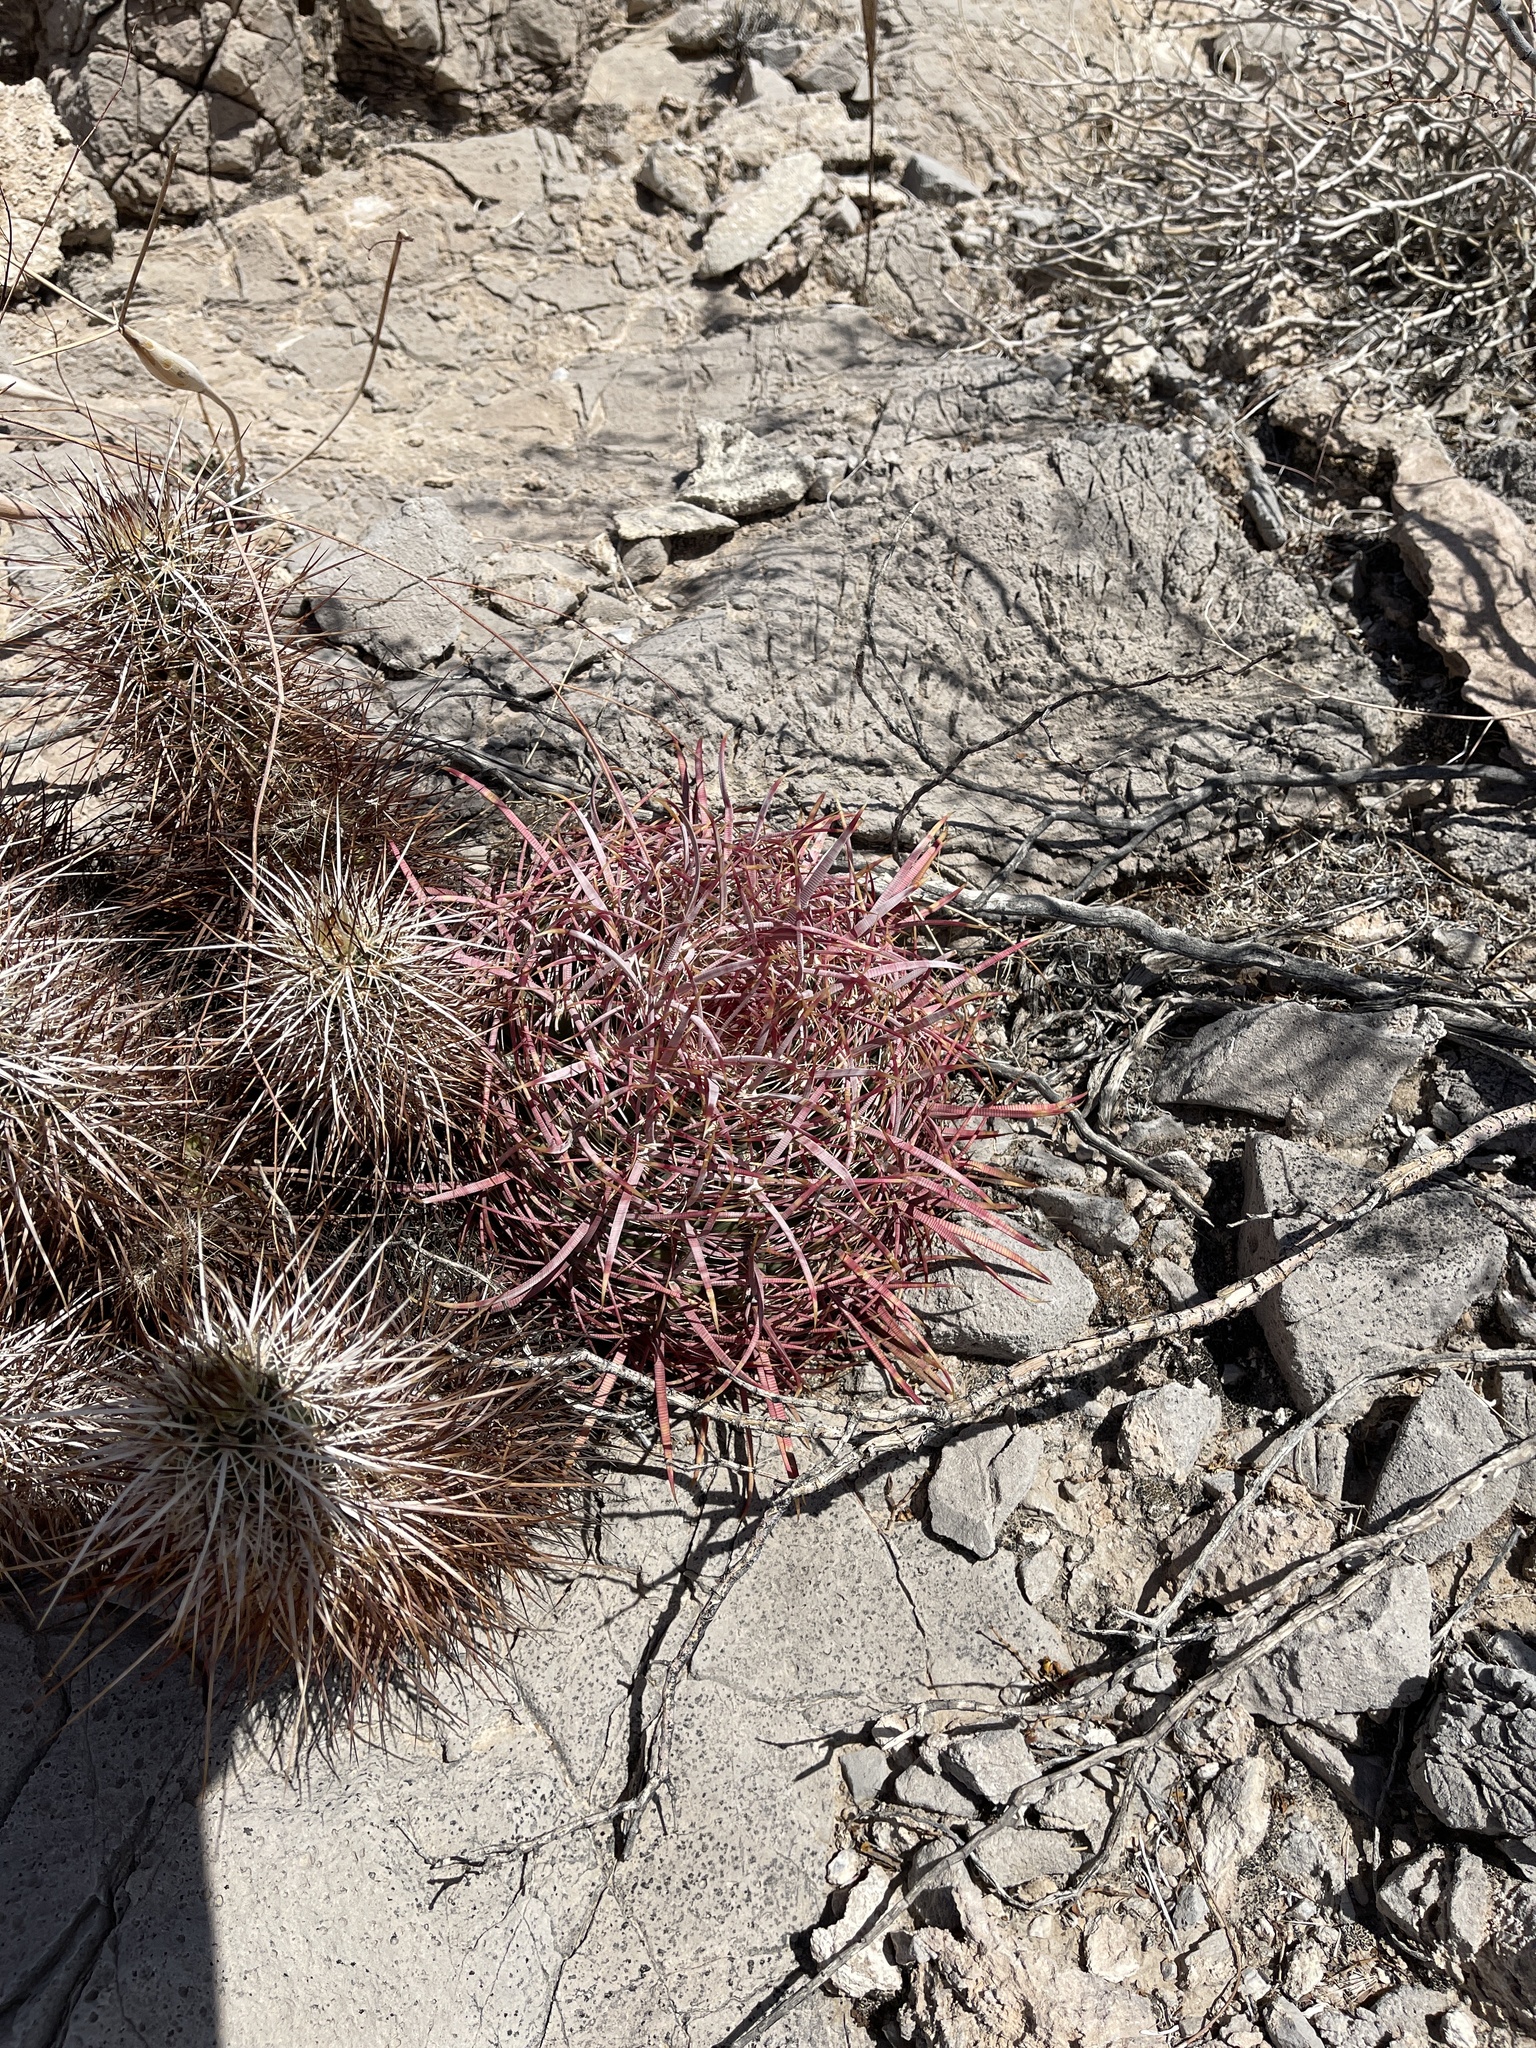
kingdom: Plantae
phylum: Tracheophyta
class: Magnoliopsida
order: Caryophyllales
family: Cactaceae
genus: Ferocactus
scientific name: Ferocactus cylindraceus
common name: California barrel cactus
